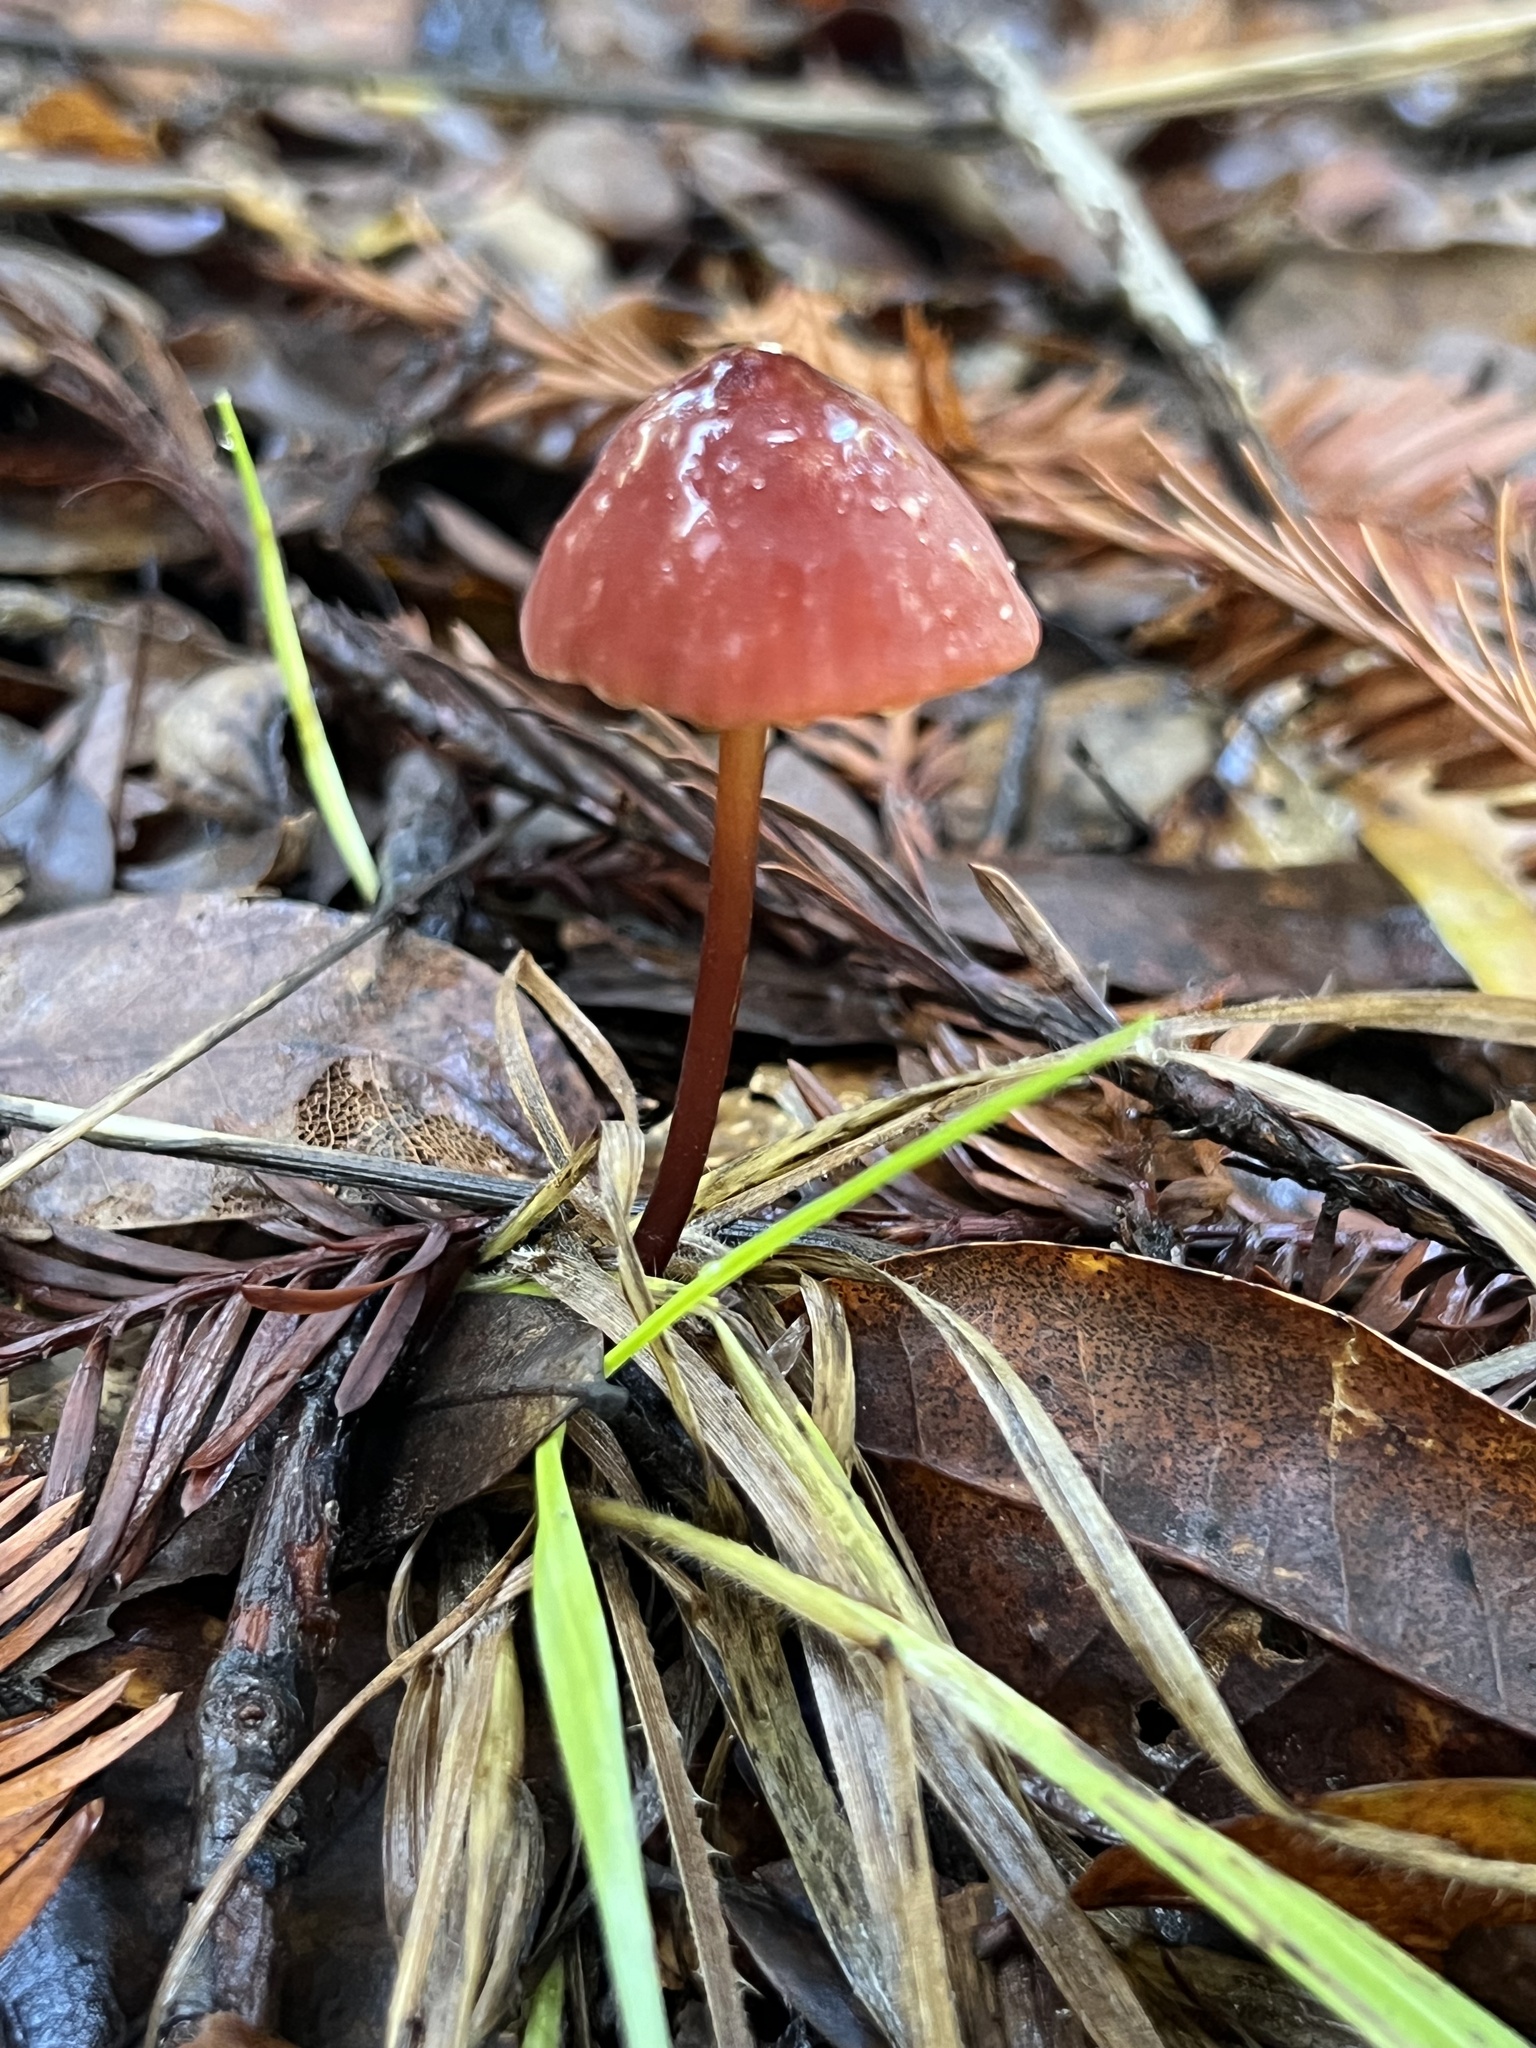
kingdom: Fungi
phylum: Basidiomycota
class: Agaricomycetes
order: Agaricales
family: Marasmiaceae
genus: Marasmius
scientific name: Marasmius plicatulus
